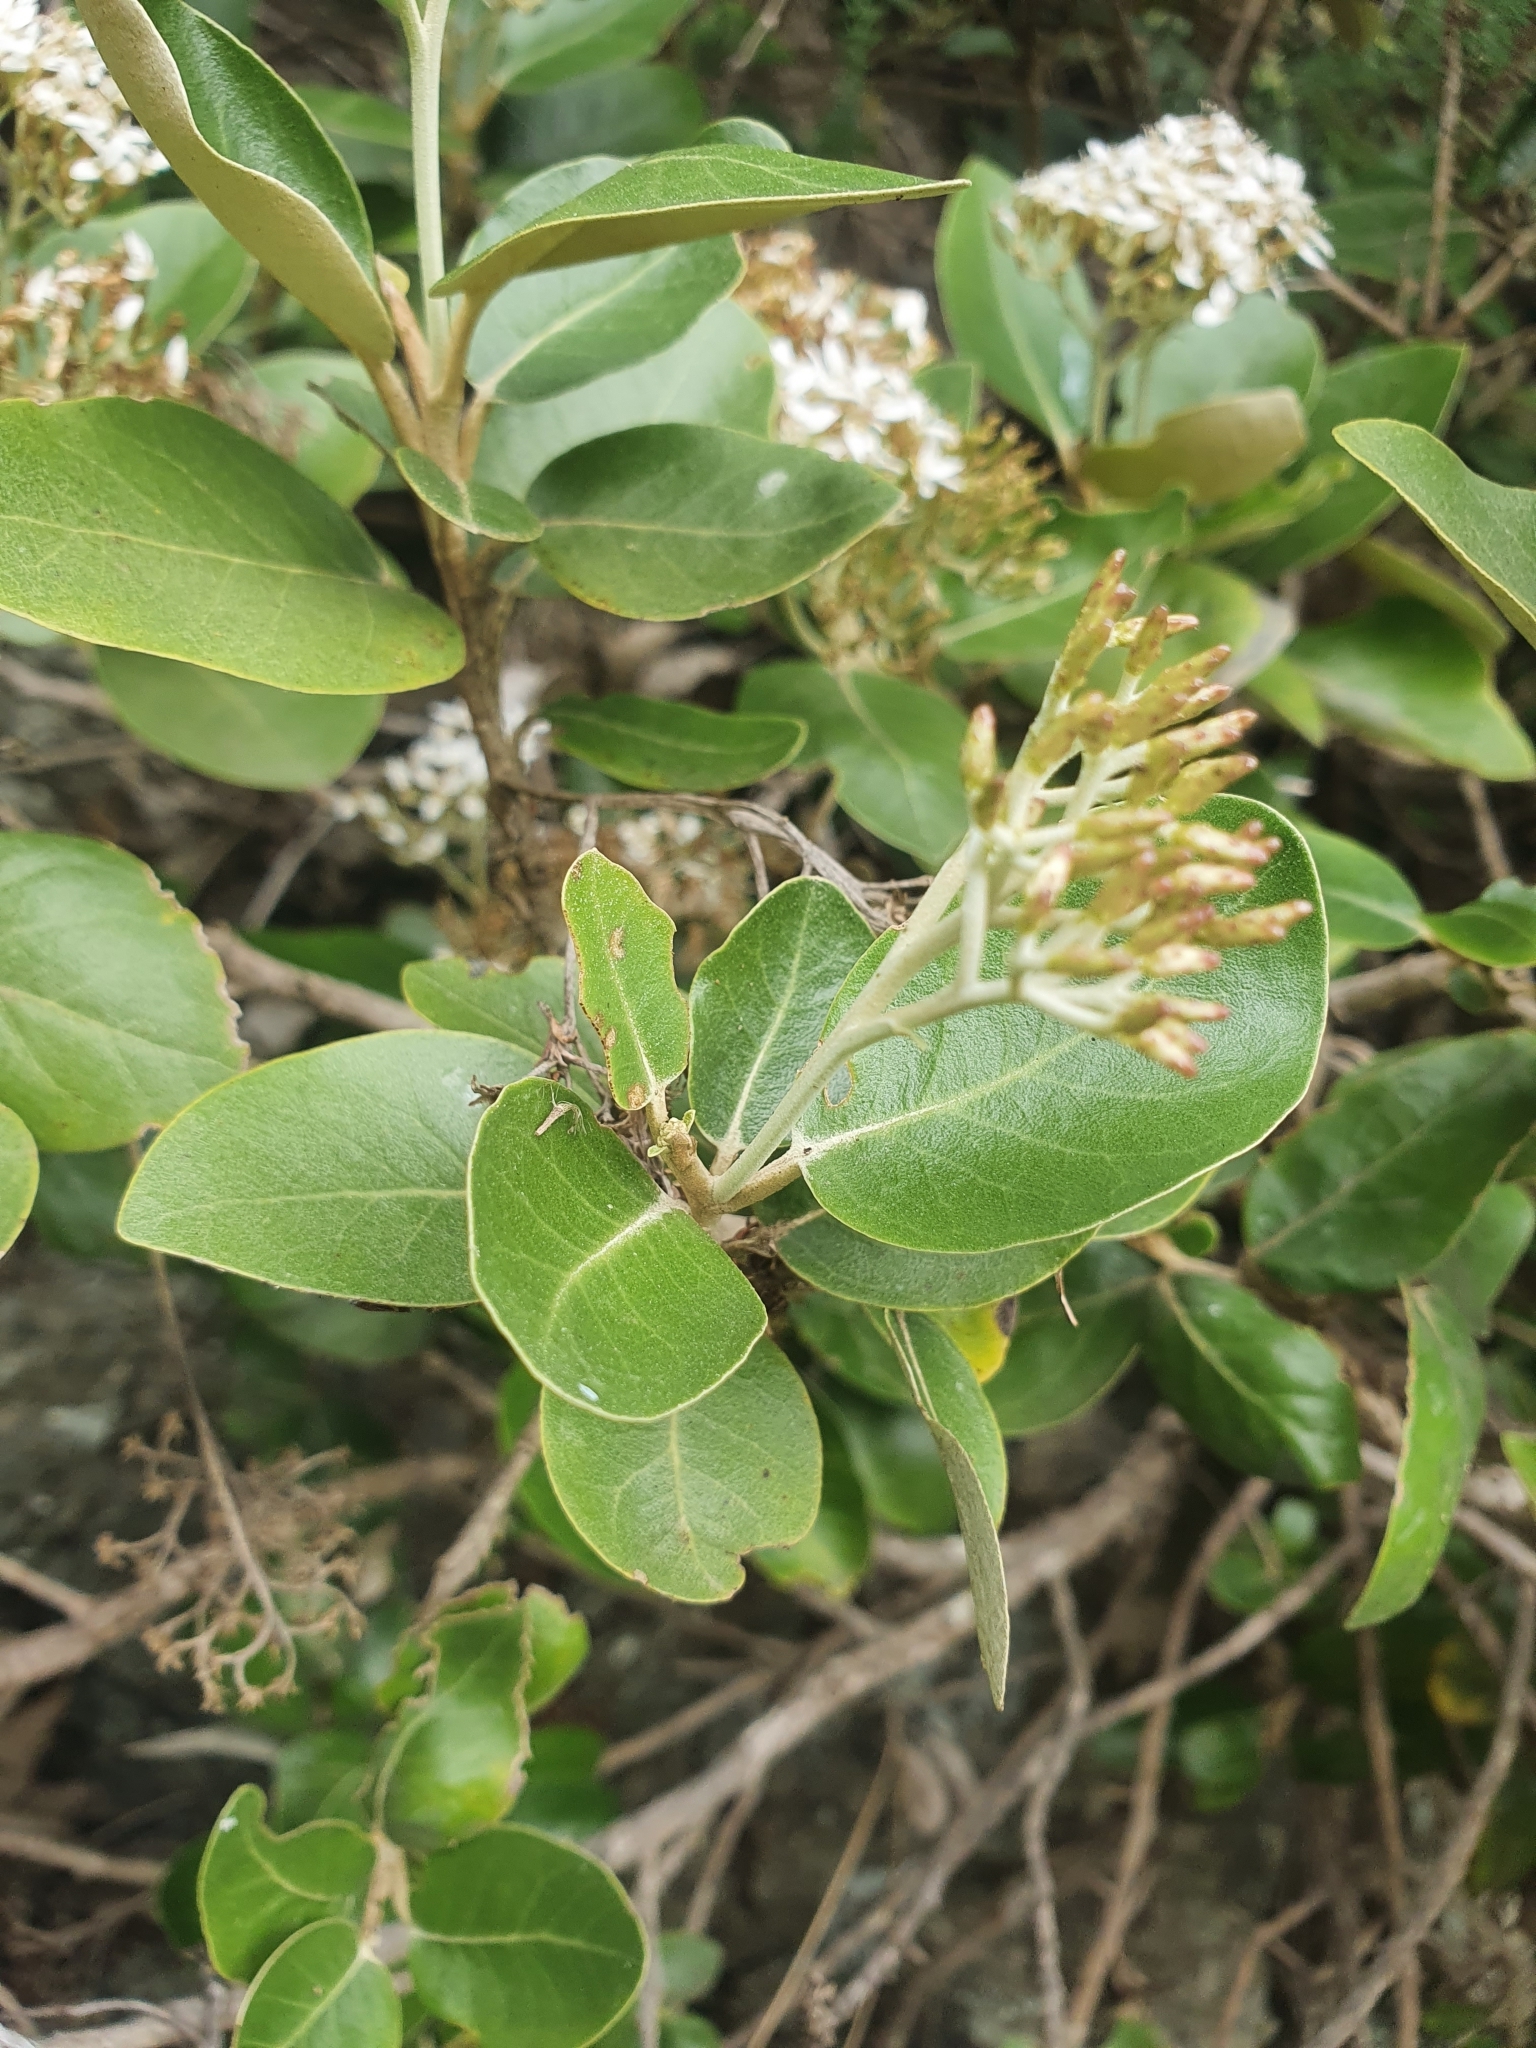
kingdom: Plantae
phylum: Tracheophyta
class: Magnoliopsida
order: Asterales
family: Asteraceae
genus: Olearia
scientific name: Olearia avicenniifolia
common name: Mangrove-leaf daisybush
